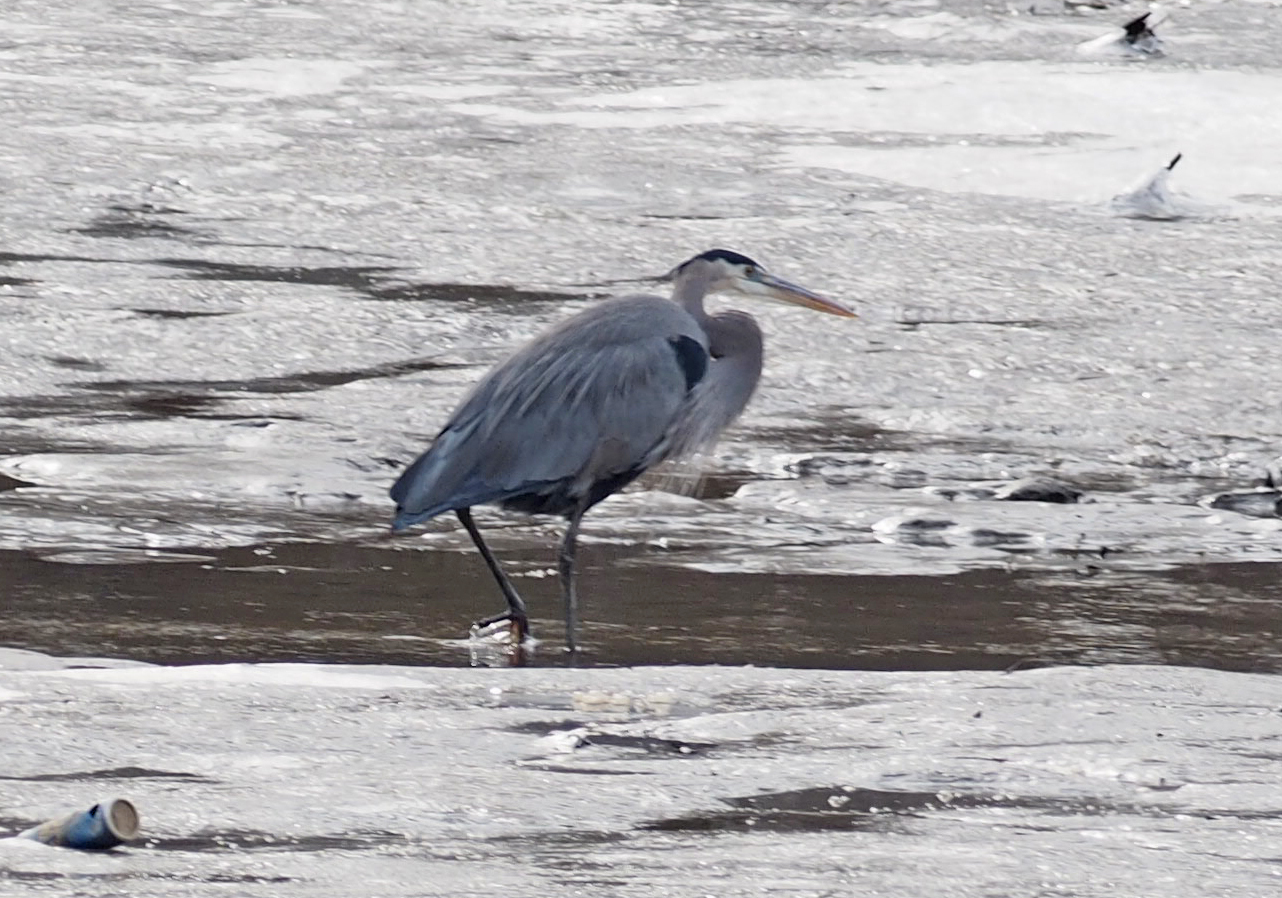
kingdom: Animalia
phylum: Chordata
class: Aves
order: Pelecaniformes
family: Ardeidae
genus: Ardea
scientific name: Ardea herodias
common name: Great blue heron
